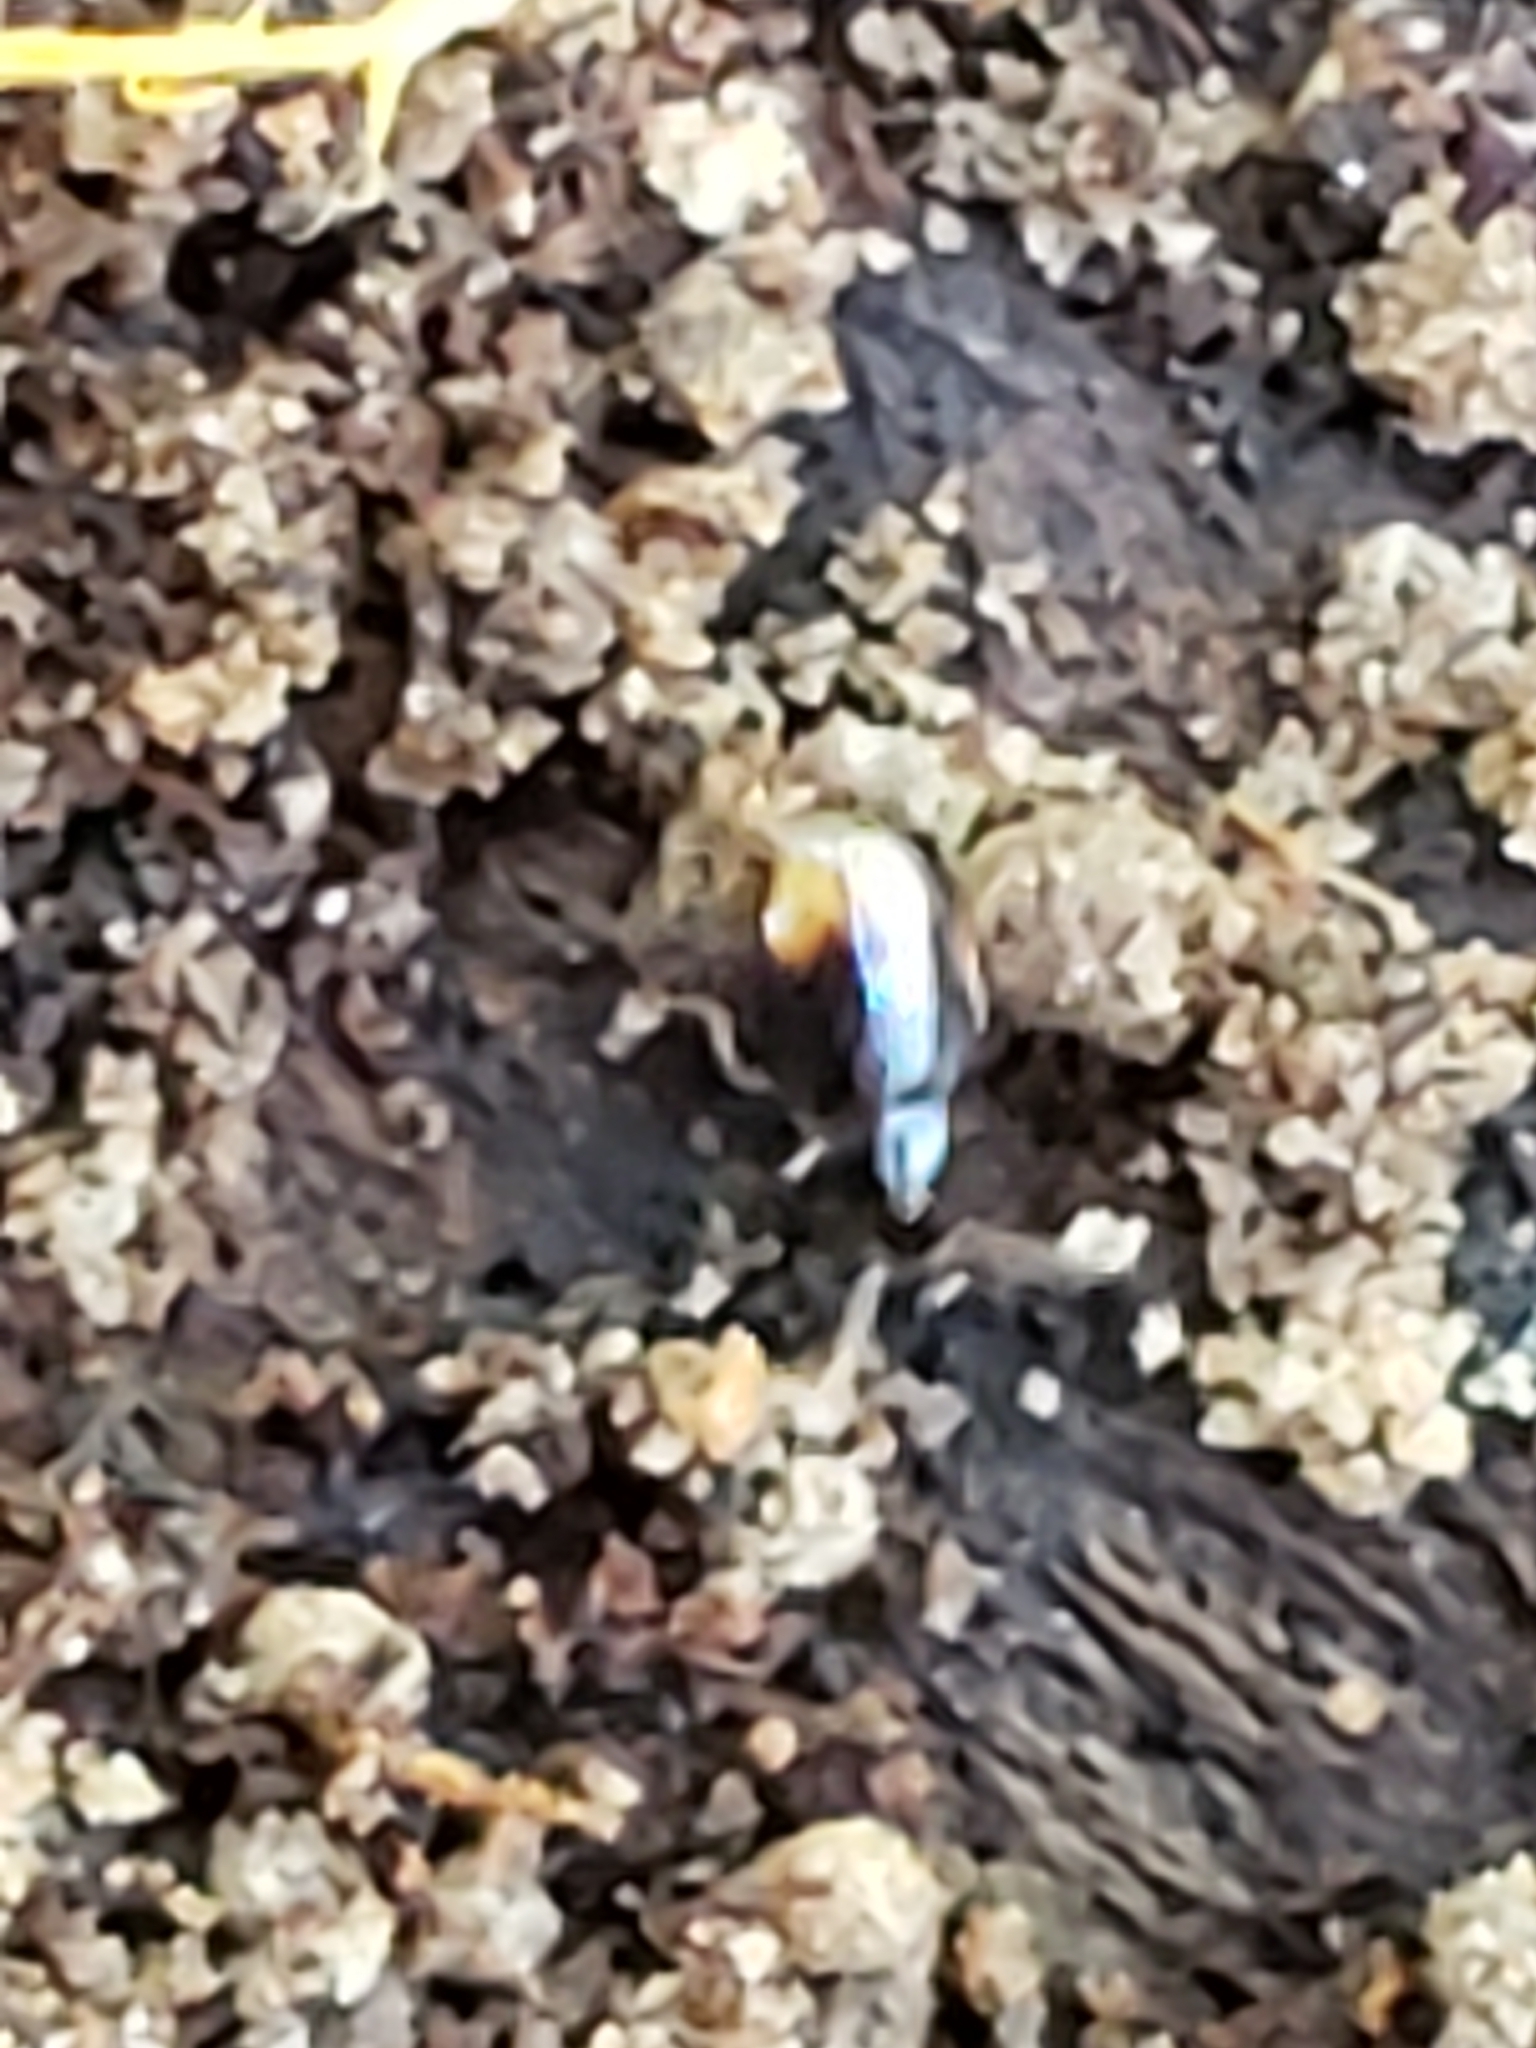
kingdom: Animalia
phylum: Arthropoda
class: Insecta
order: Coleoptera
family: Carabidae
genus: Mioptachys
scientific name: Mioptachys flavicauda
